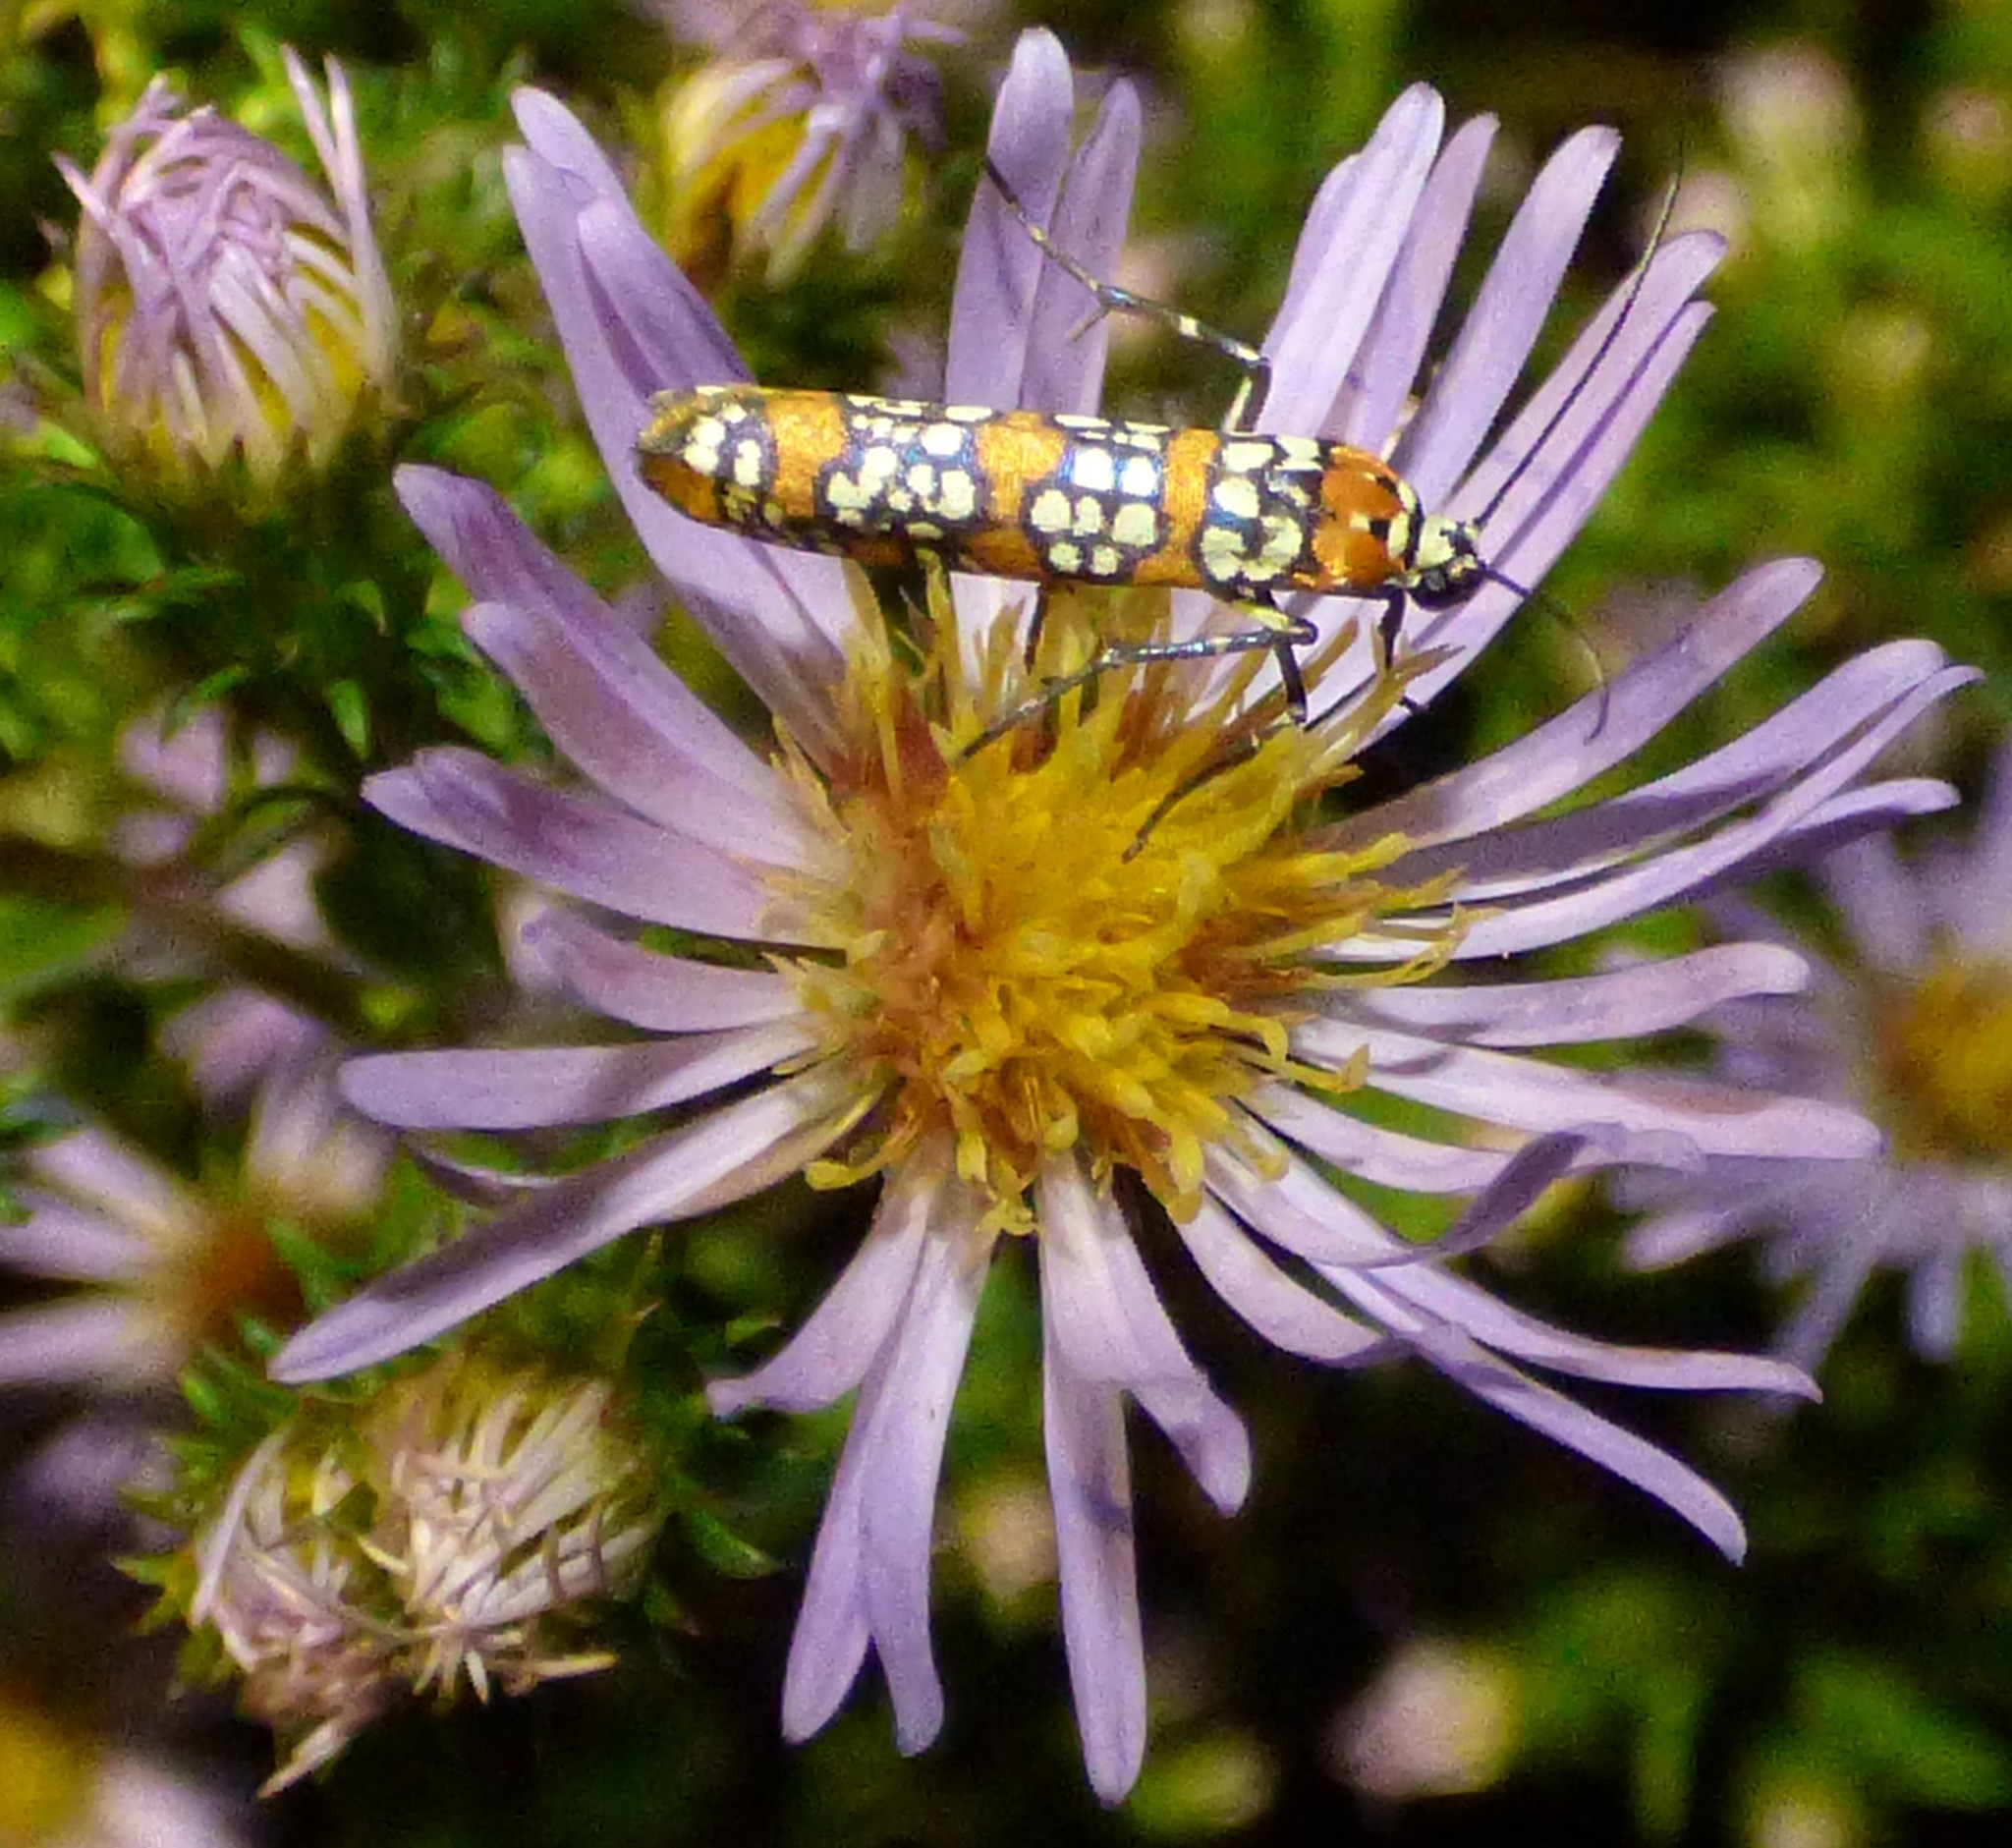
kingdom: Animalia
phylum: Arthropoda
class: Insecta
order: Lepidoptera
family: Attevidae
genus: Atteva
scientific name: Atteva punctella
